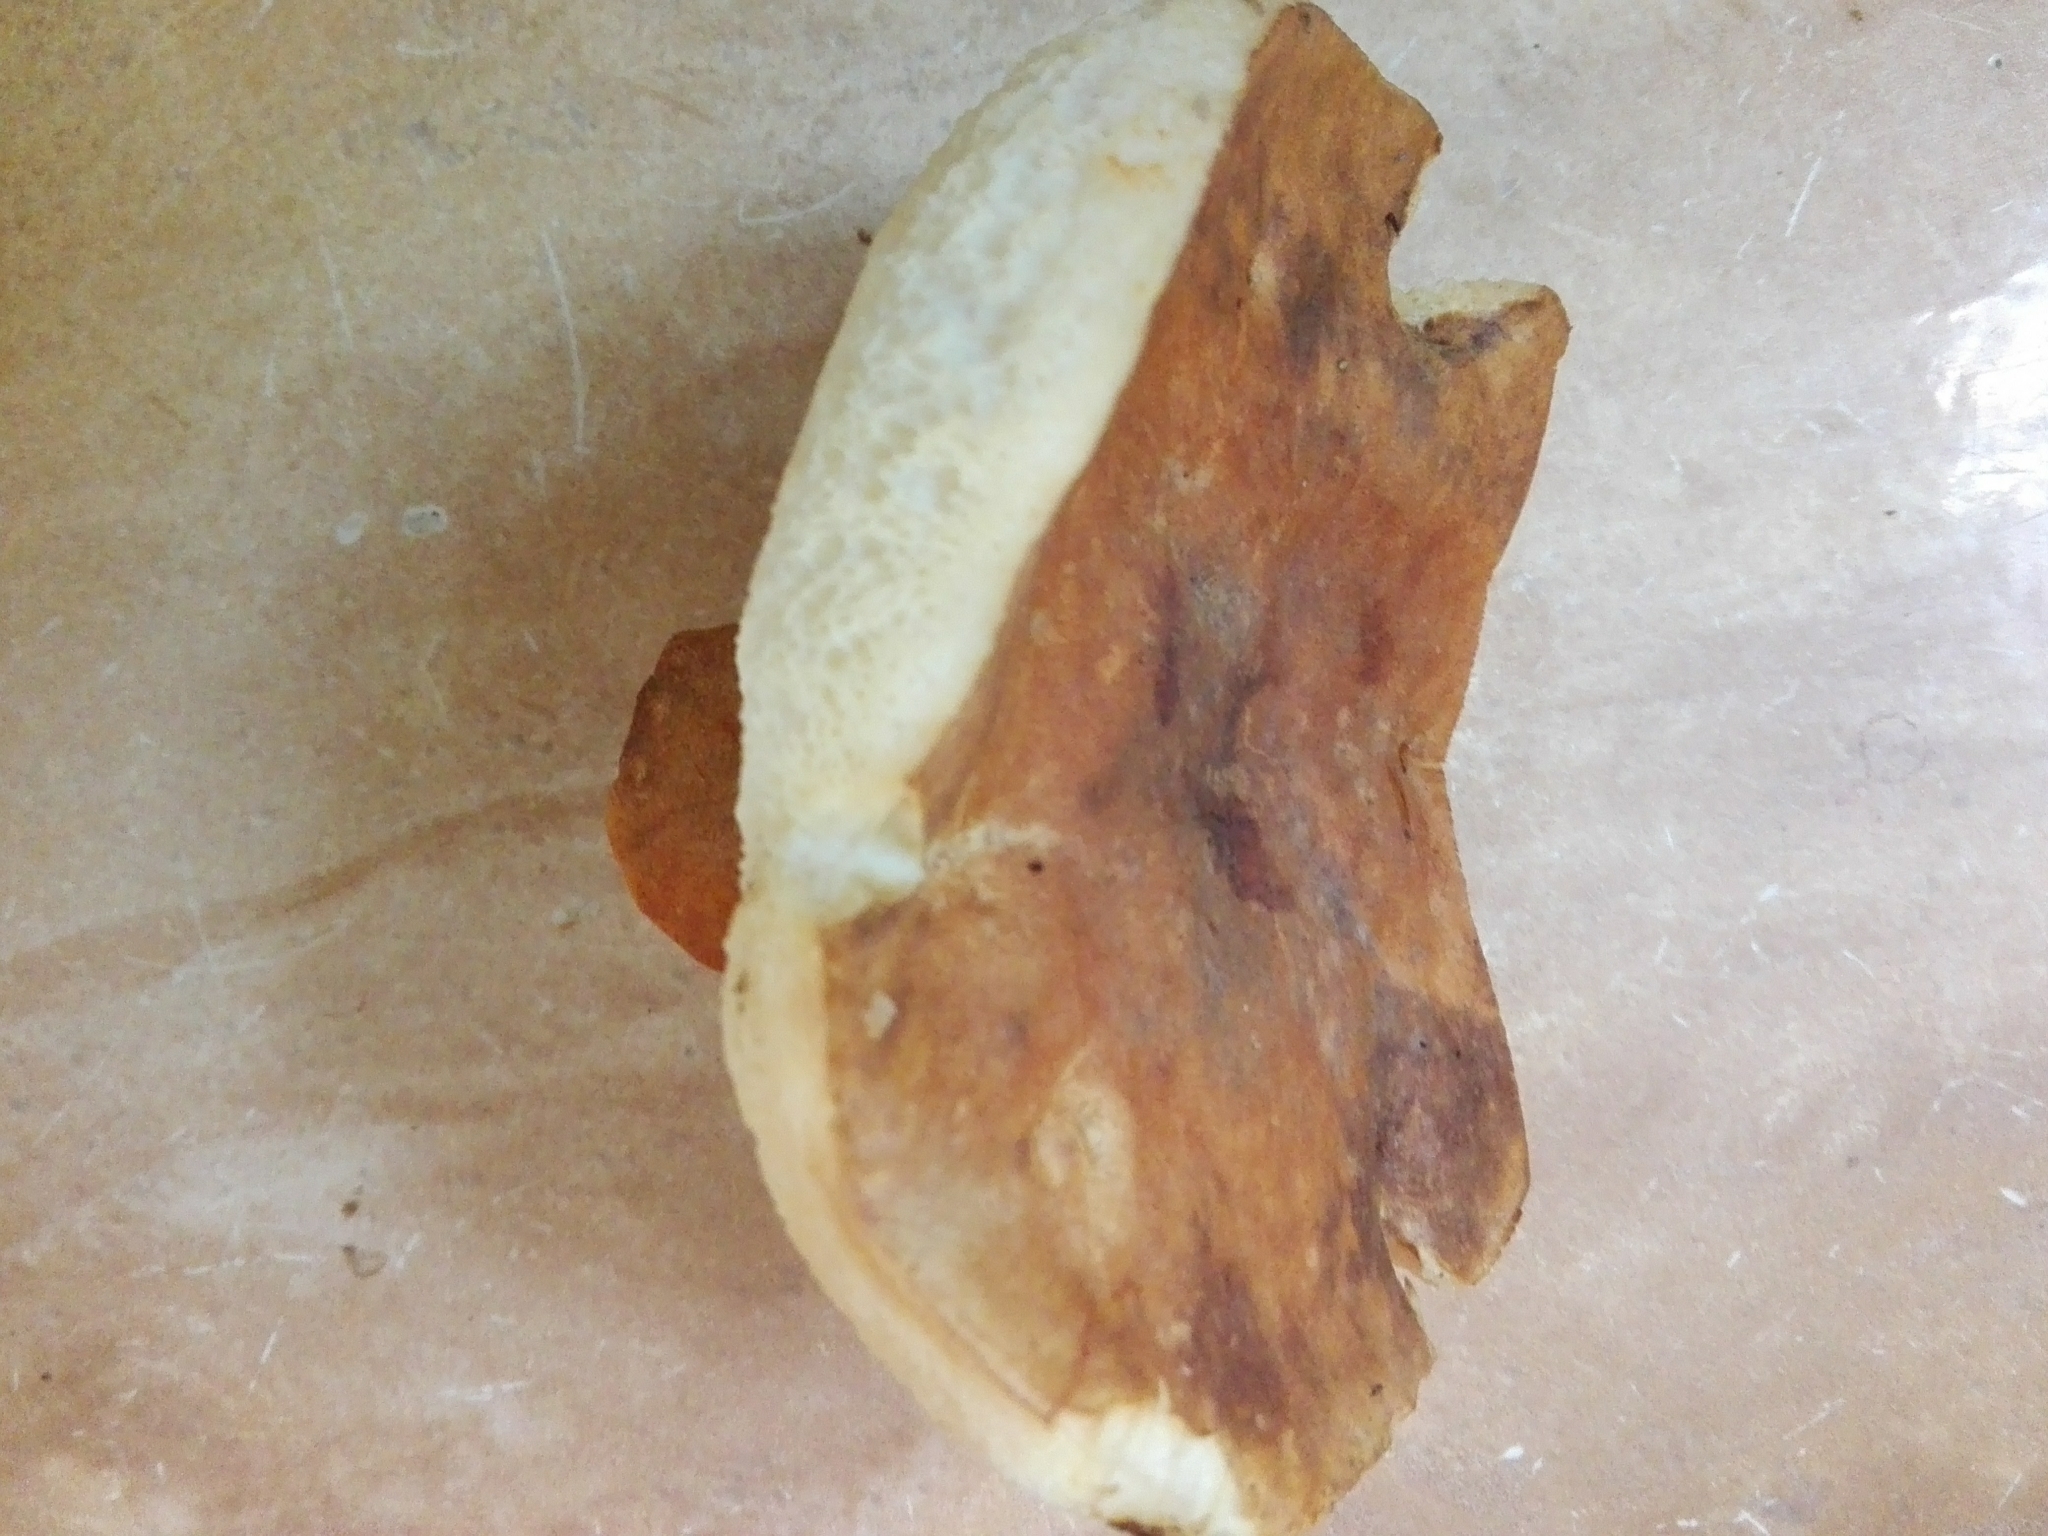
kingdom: Fungi
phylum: Basidiomycota
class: Agaricomycetes
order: Boletales
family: Gyroporaceae
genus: Gyroporus
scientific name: Gyroporus castaneus
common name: Chestnut bolete
